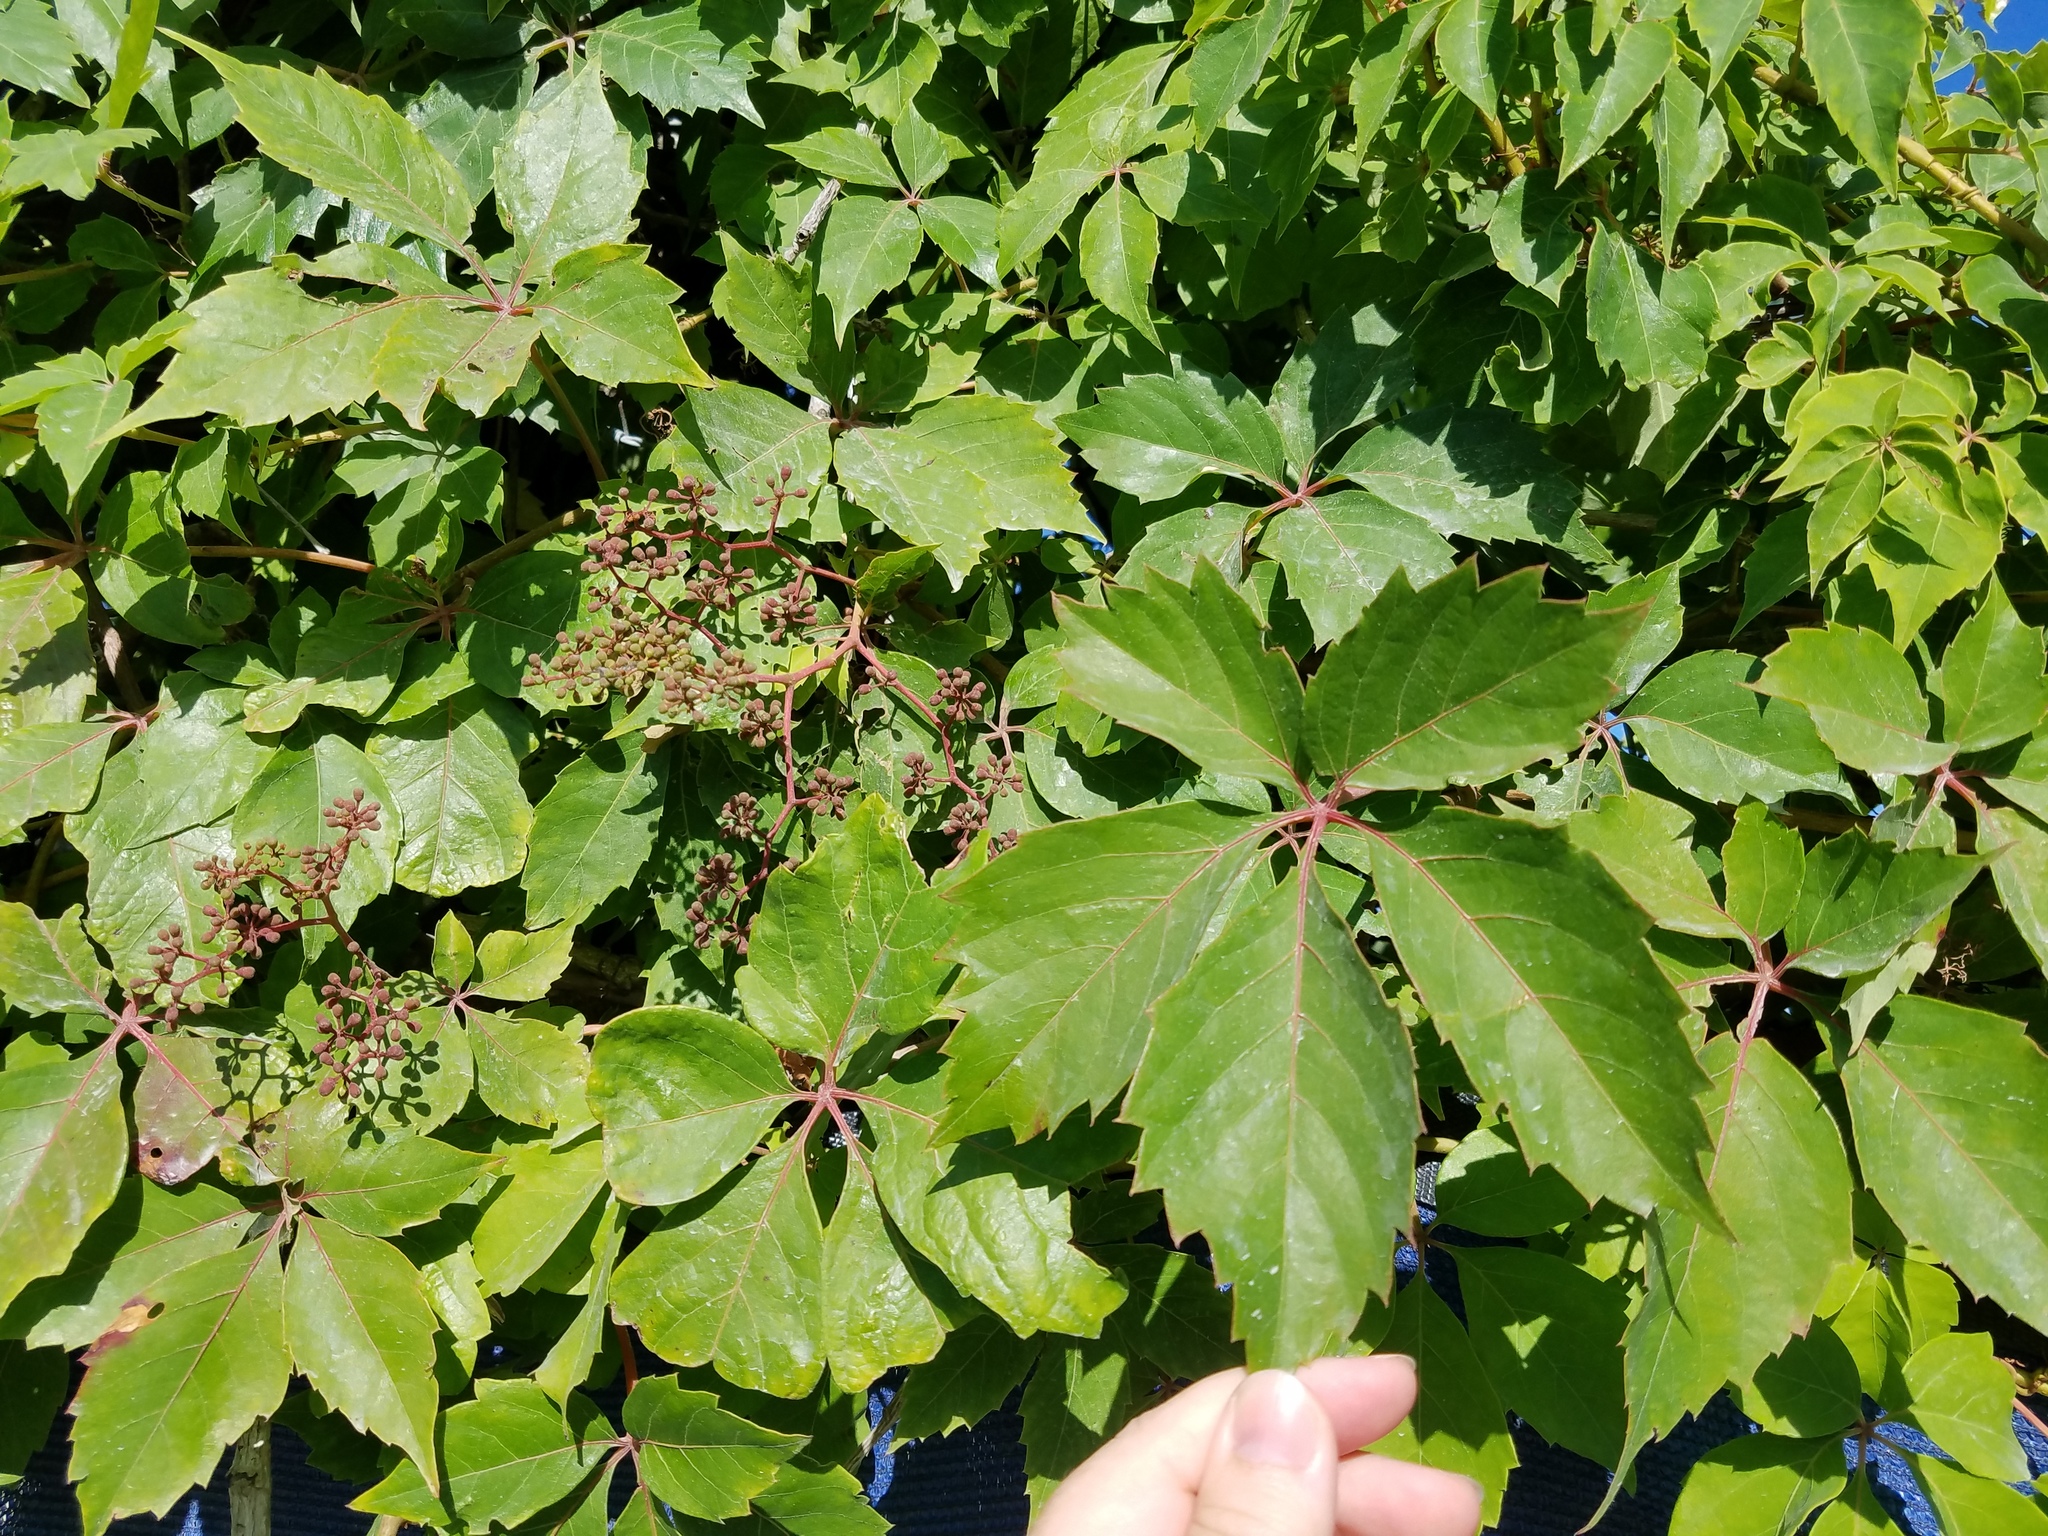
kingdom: Plantae
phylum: Tracheophyta
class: Magnoliopsida
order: Vitales
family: Vitaceae
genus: Parthenocissus
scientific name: Parthenocissus quinquefolia
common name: Virginia-creeper
